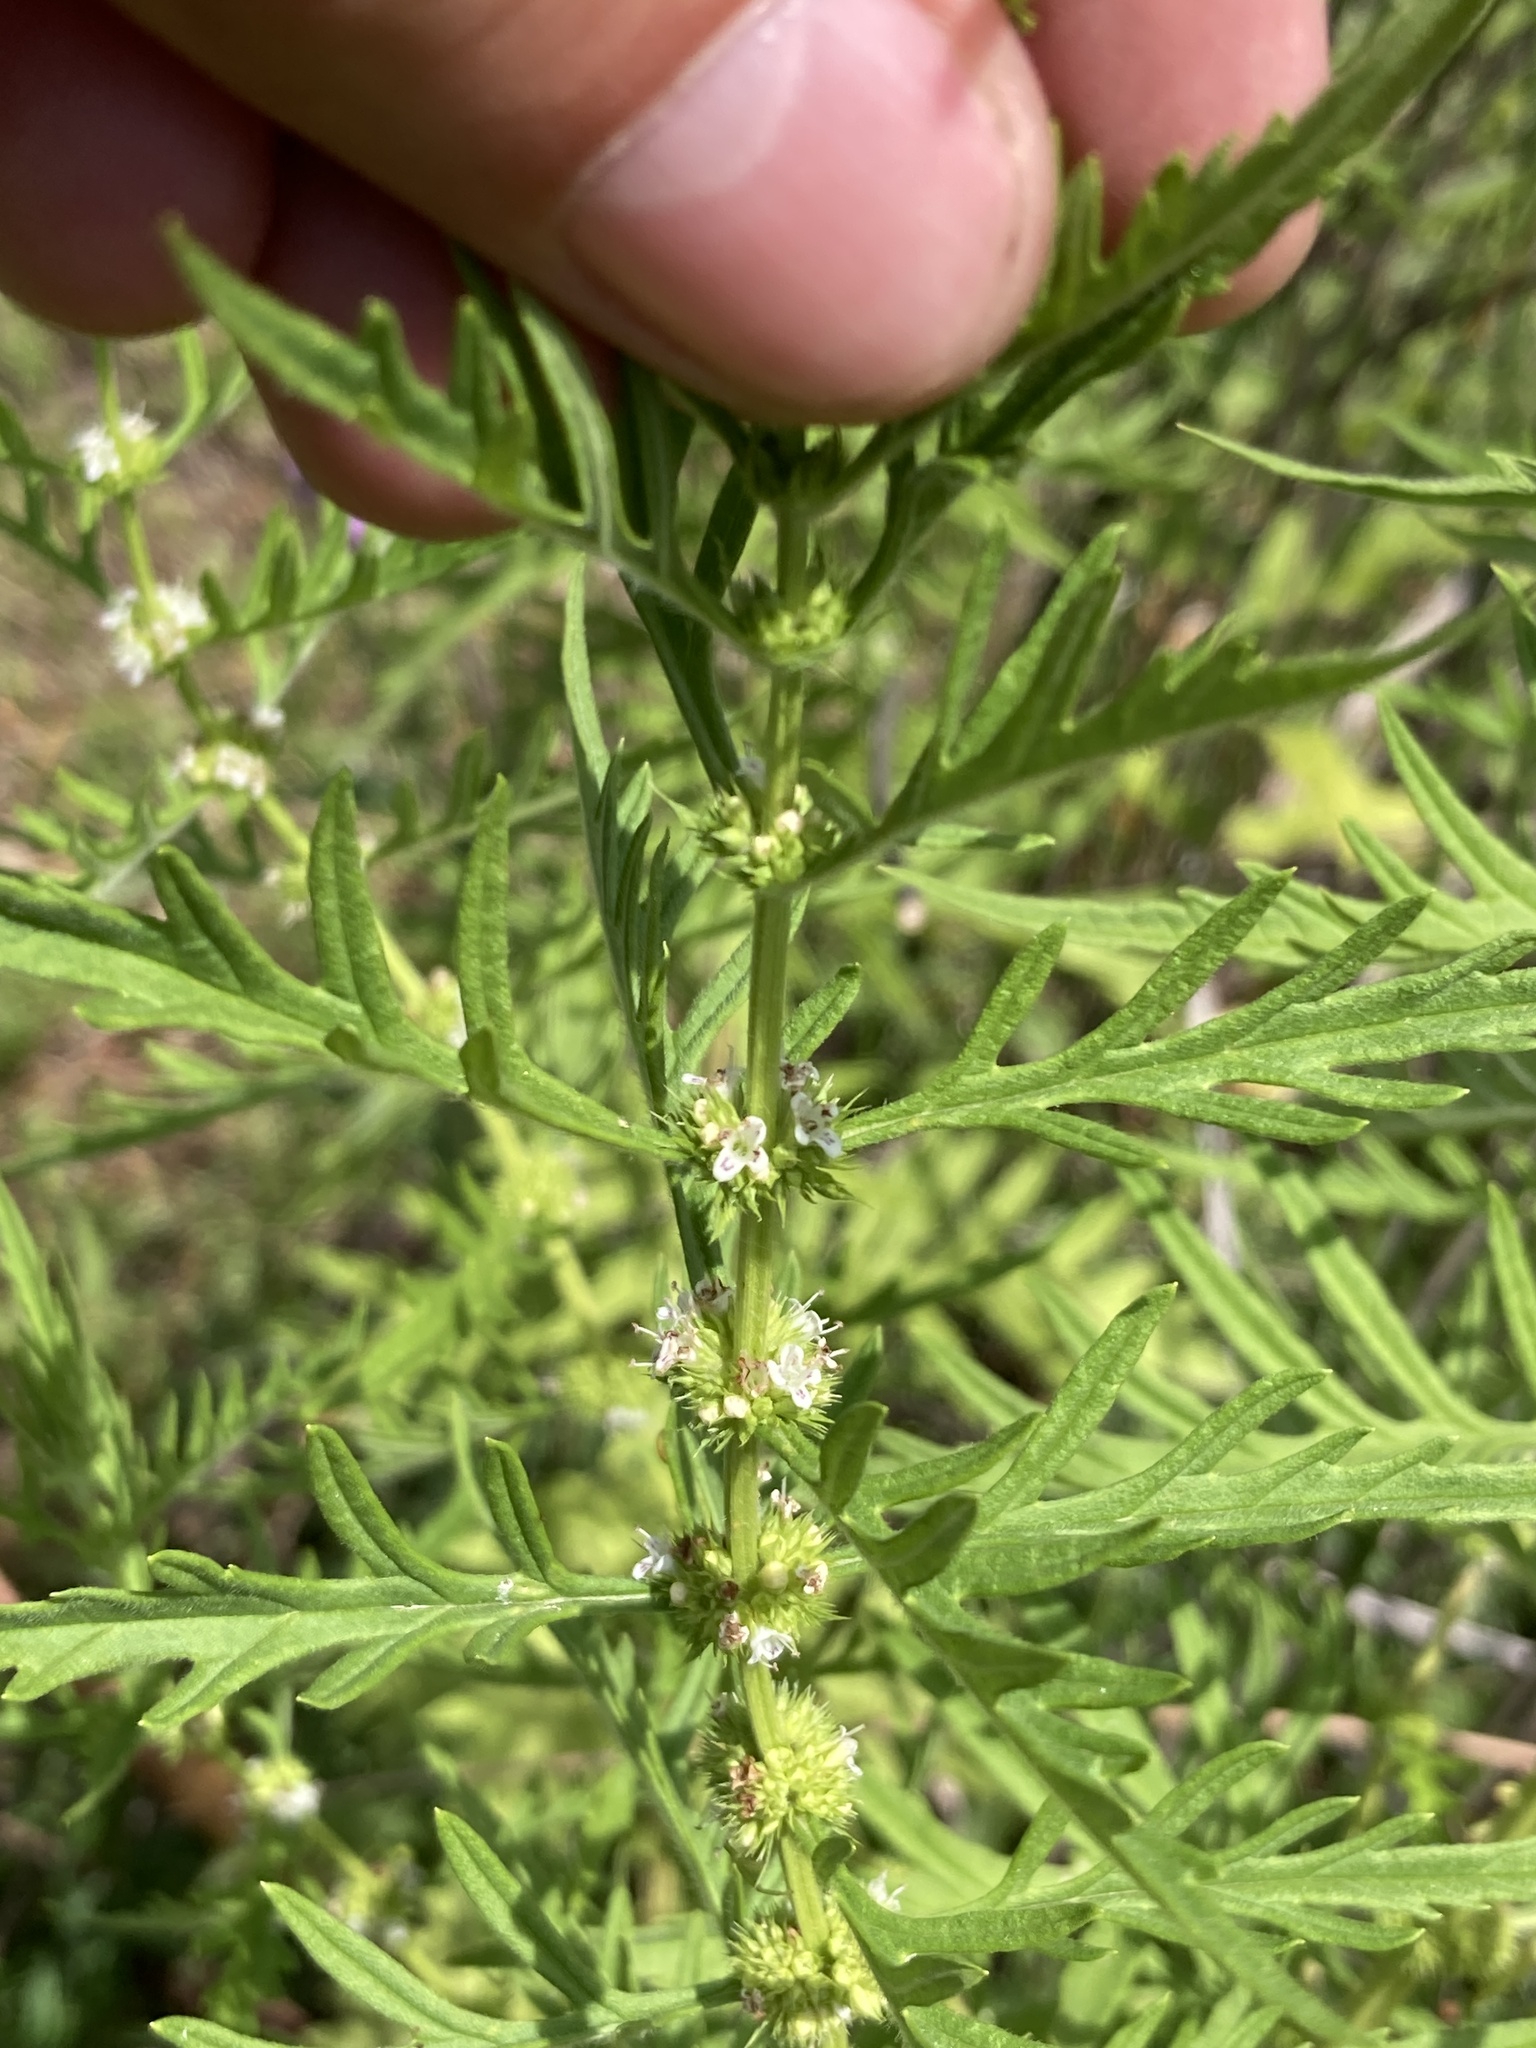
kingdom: Plantae
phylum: Tracheophyta
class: Magnoliopsida
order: Lamiales
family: Lamiaceae
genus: Lycopus
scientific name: Lycopus exaltatus
